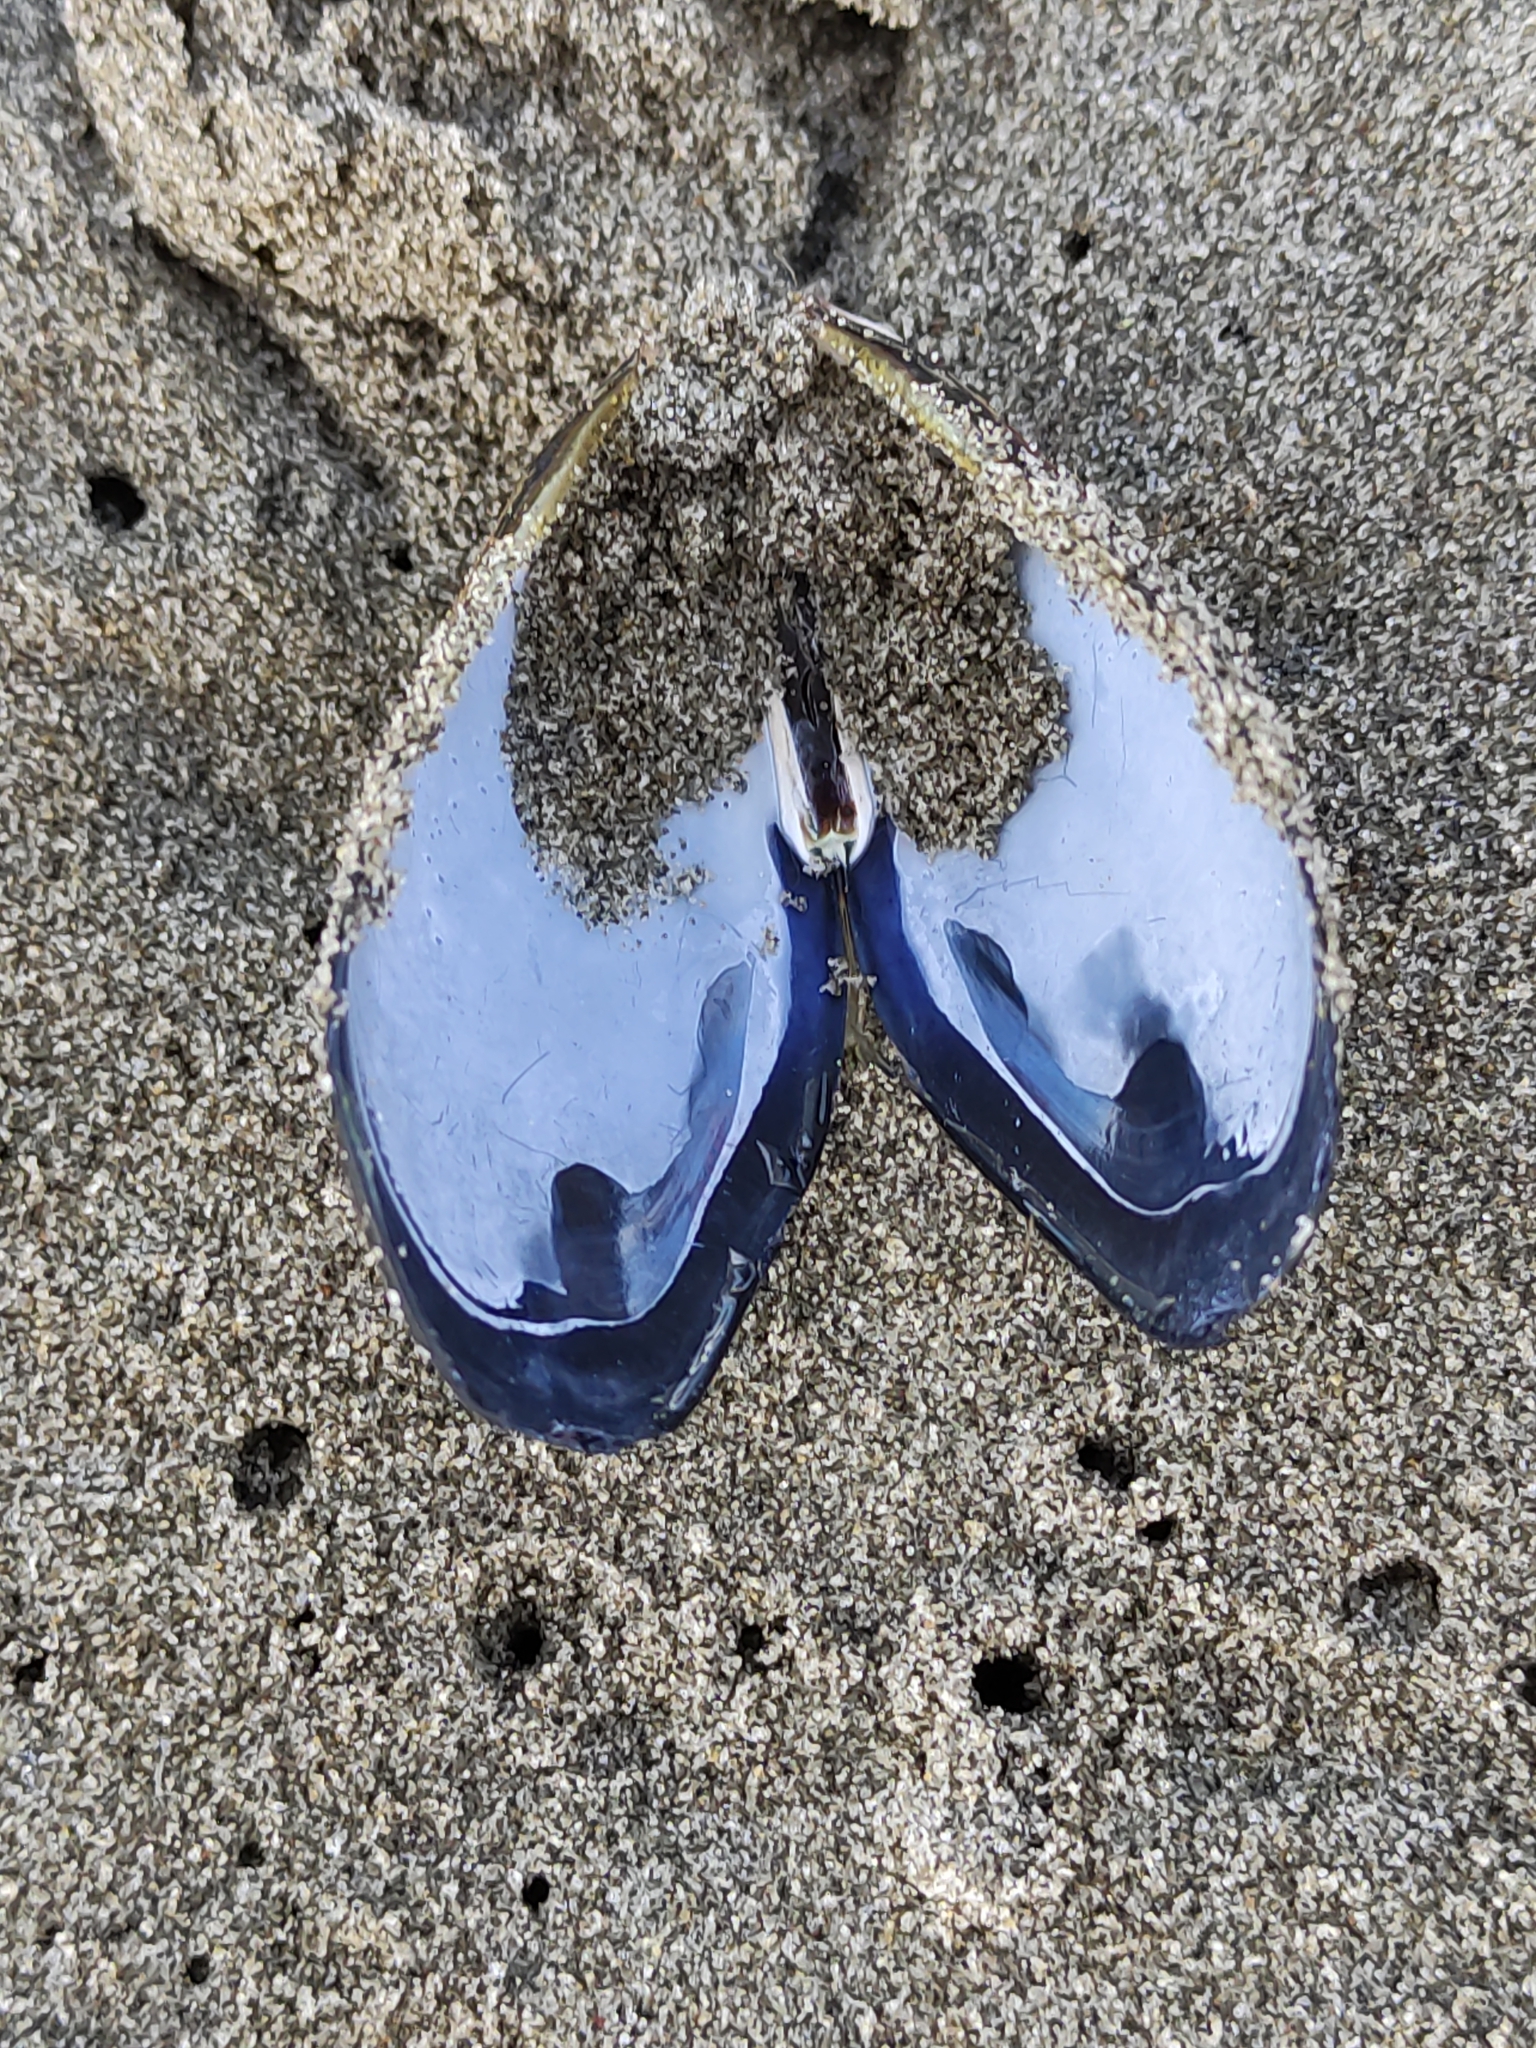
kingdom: Animalia
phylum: Mollusca
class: Bivalvia
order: Mytilida
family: Mytilidae
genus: Mytilus
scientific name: Mytilus planulatus
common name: Australian mussel
